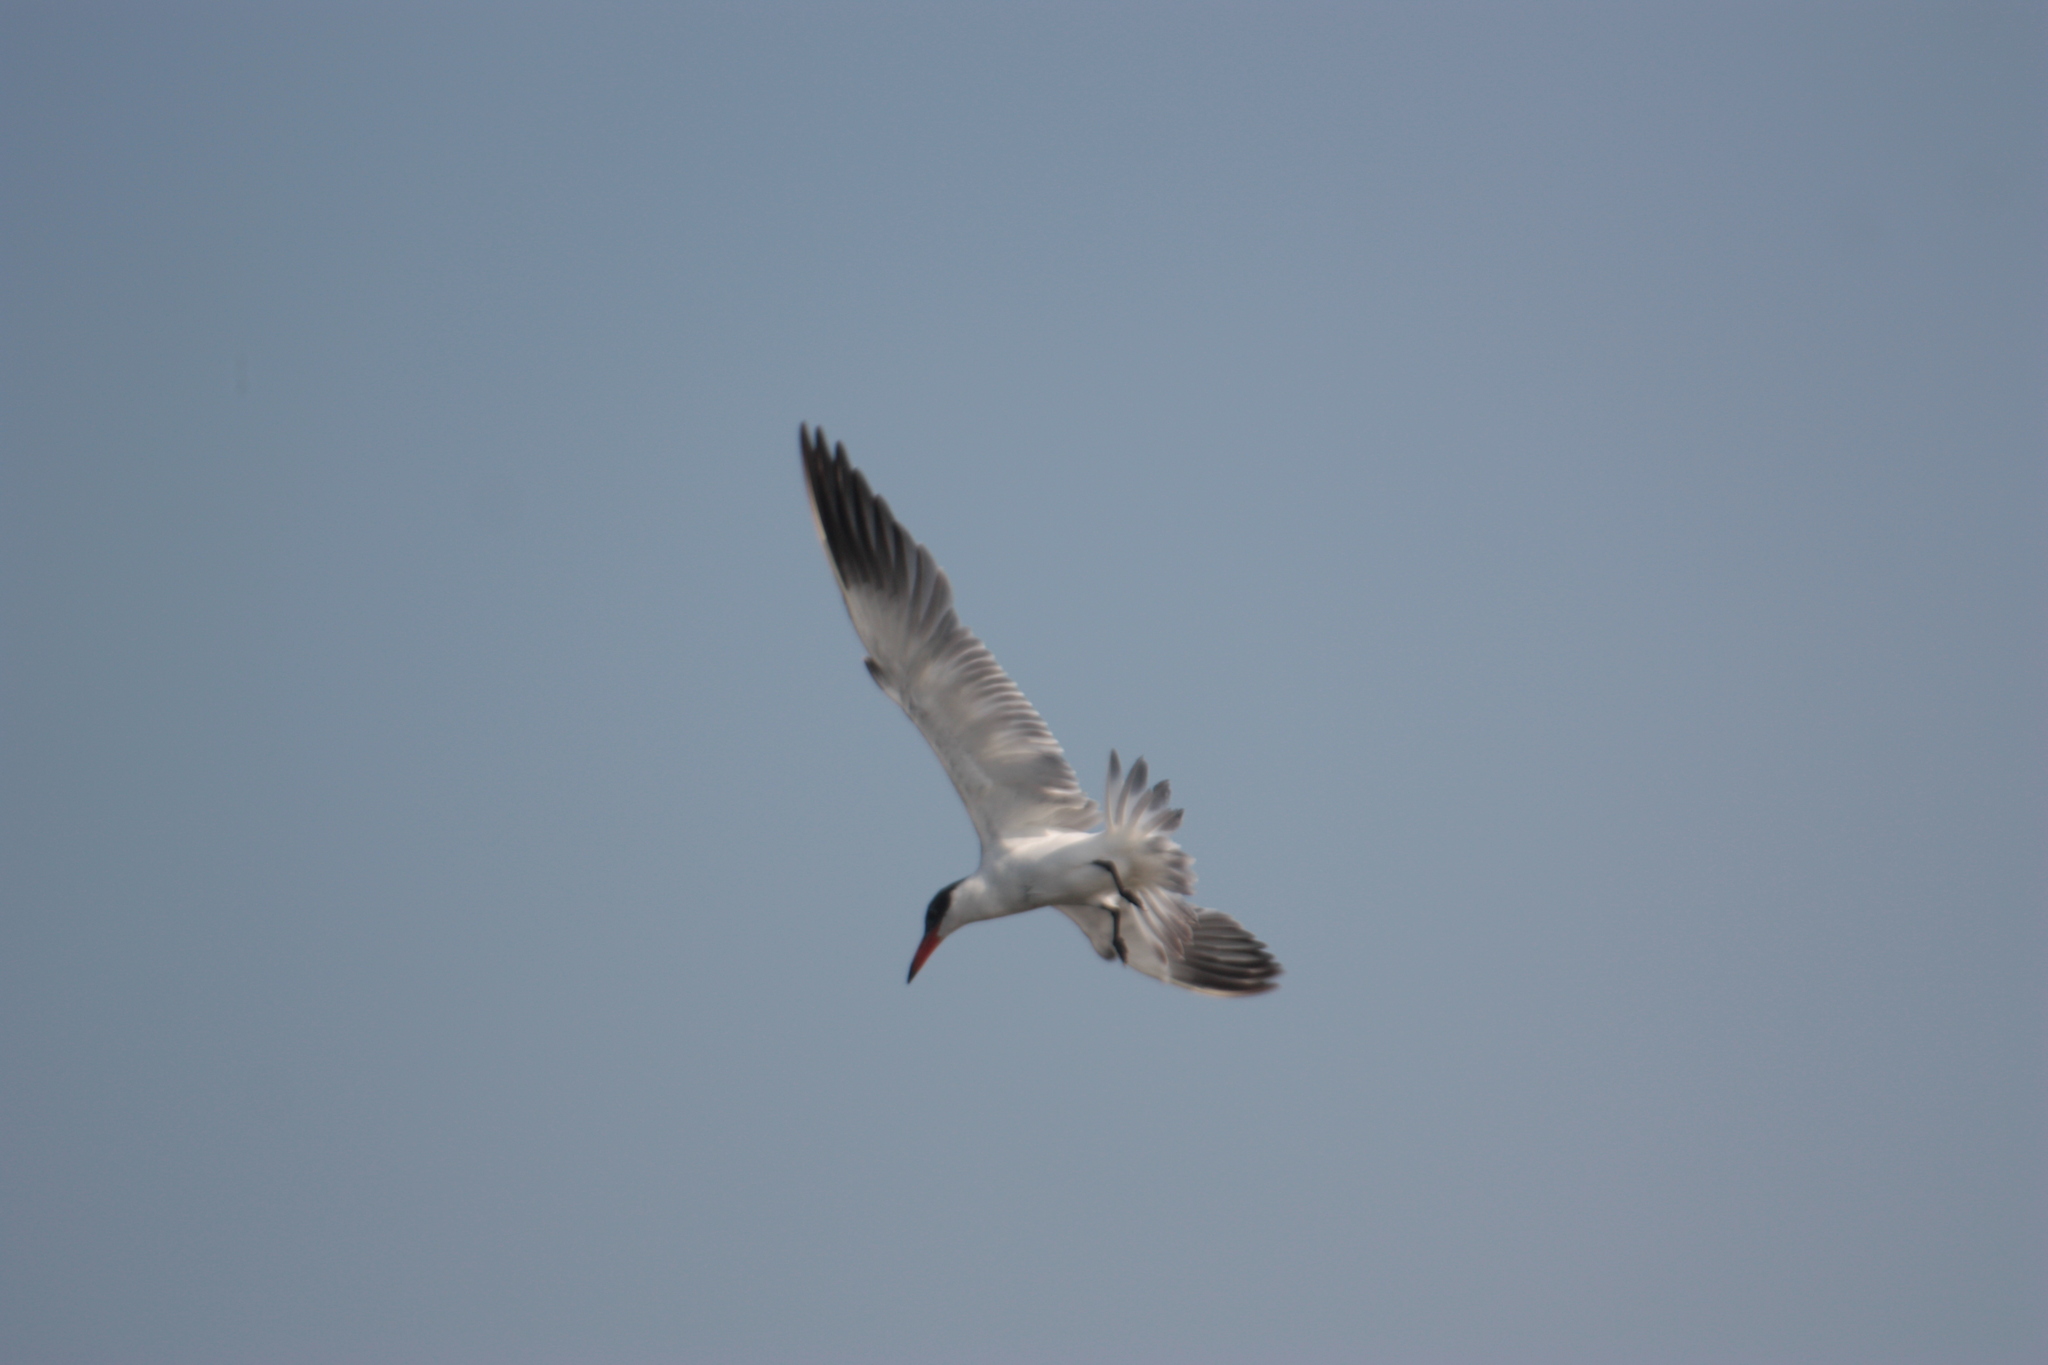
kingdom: Animalia
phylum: Chordata
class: Aves
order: Charadriiformes
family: Laridae
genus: Hydroprogne
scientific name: Hydroprogne caspia
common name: Caspian tern
